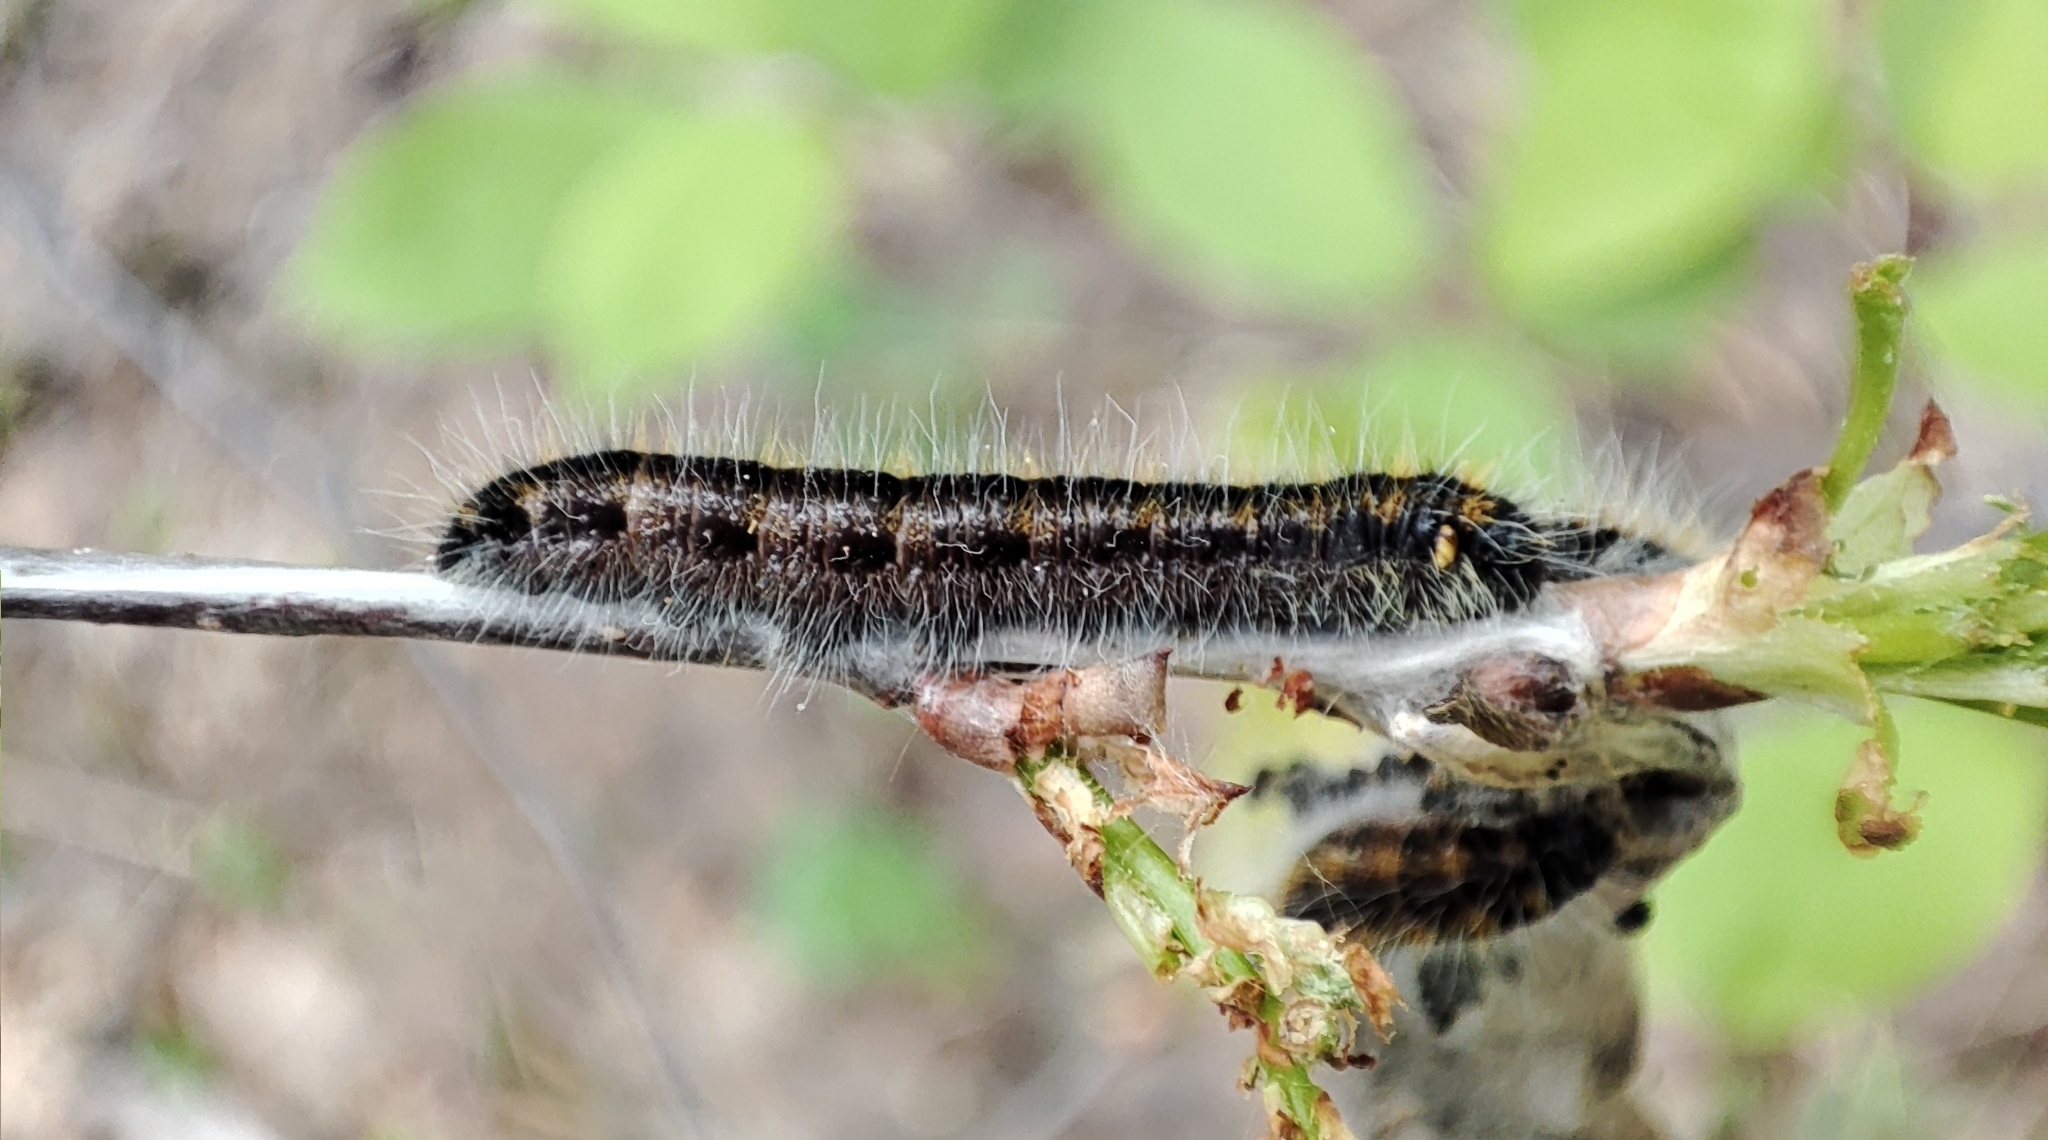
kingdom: Animalia
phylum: Arthropoda
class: Insecta
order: Lepidoptera
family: Pieridae
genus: Aporia
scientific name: Aporia crataegi
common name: Black-veined white
